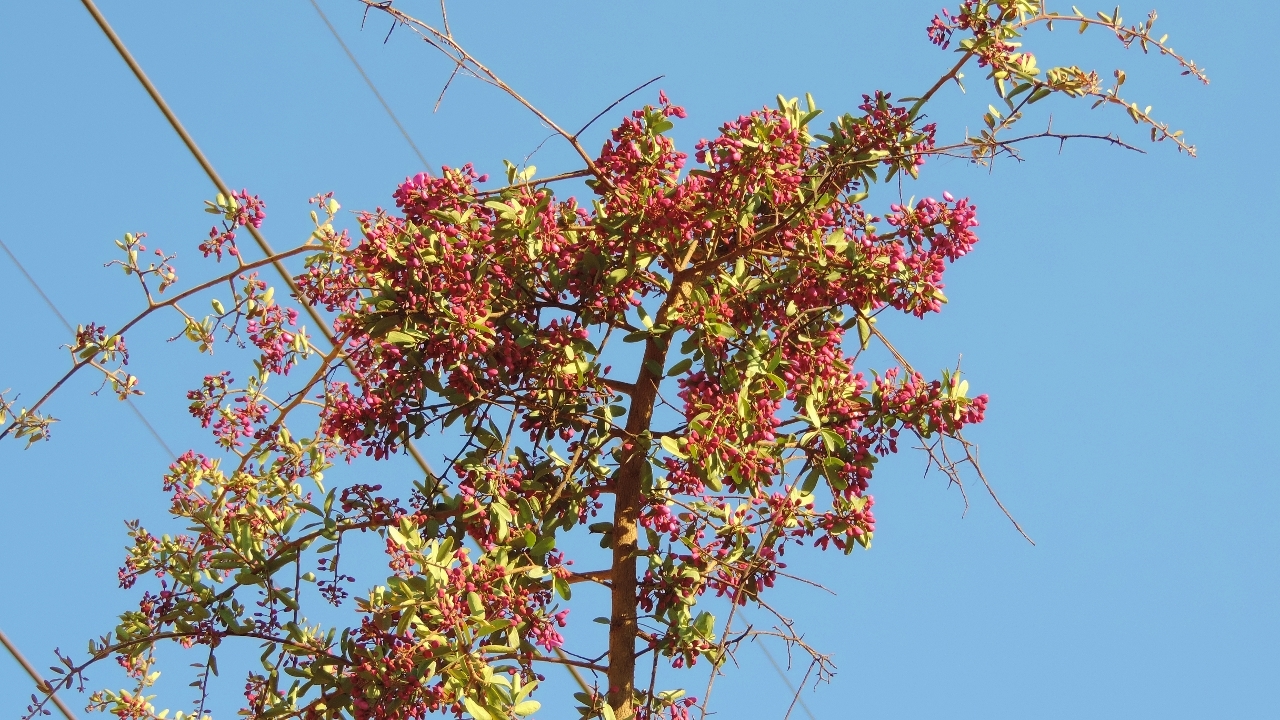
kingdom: Plantae
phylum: Tracheophyta
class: Magnoliopsida
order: Fabales
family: Polygalaceae
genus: Securidaca
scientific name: Securidaca longepedunculata
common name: Violet tree
